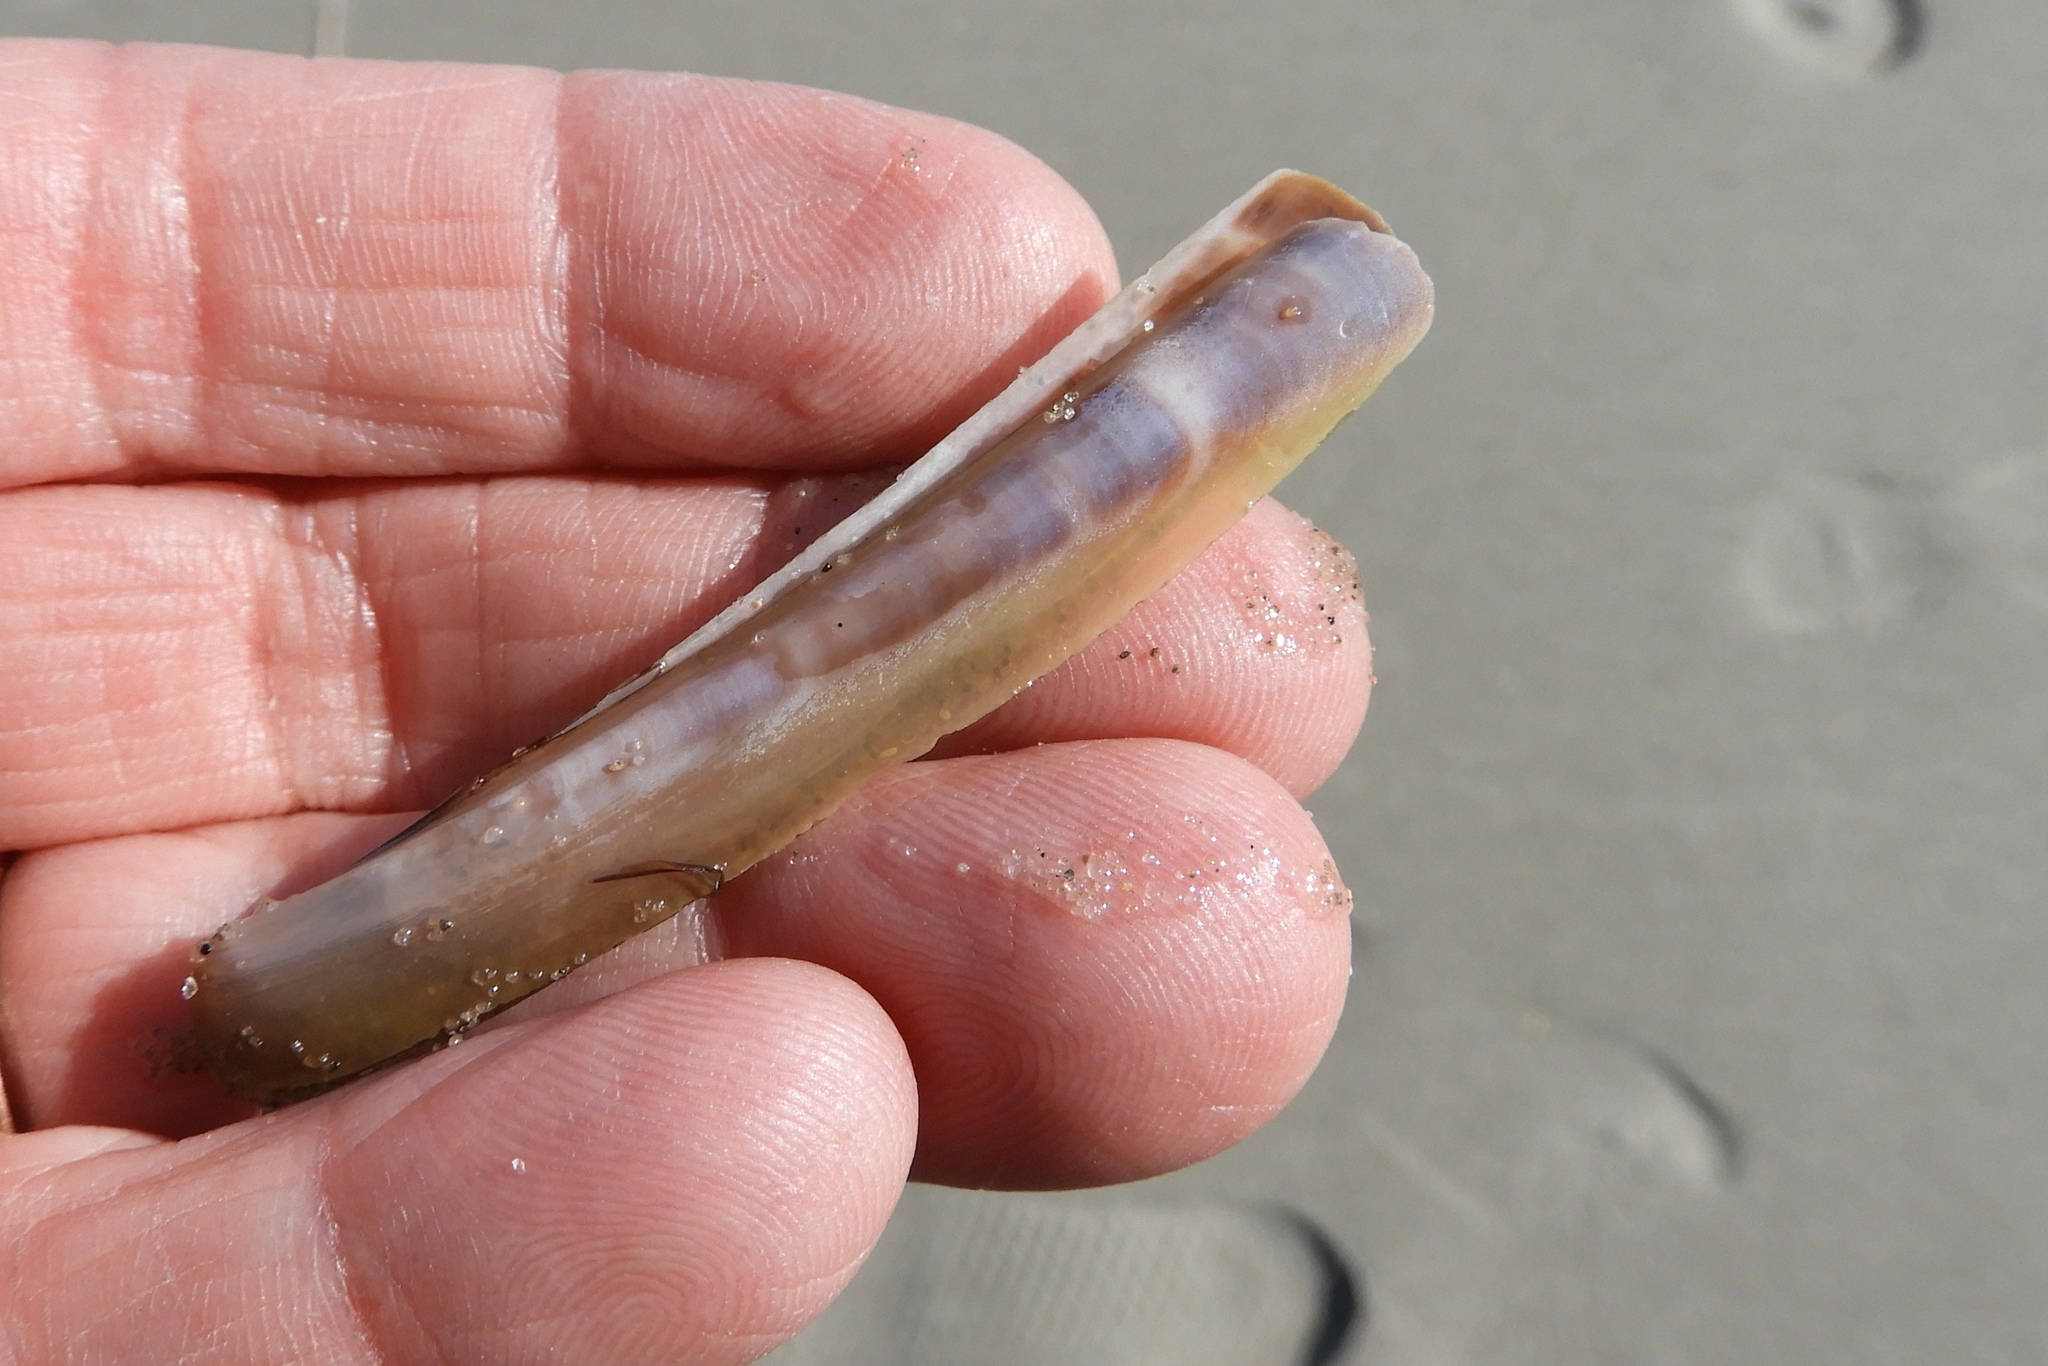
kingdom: Animalia
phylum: Mollusca
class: Bivalvia
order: Adapedonta
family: Pharidae
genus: Ensis
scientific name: Ensis leei
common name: American jack knife clam
